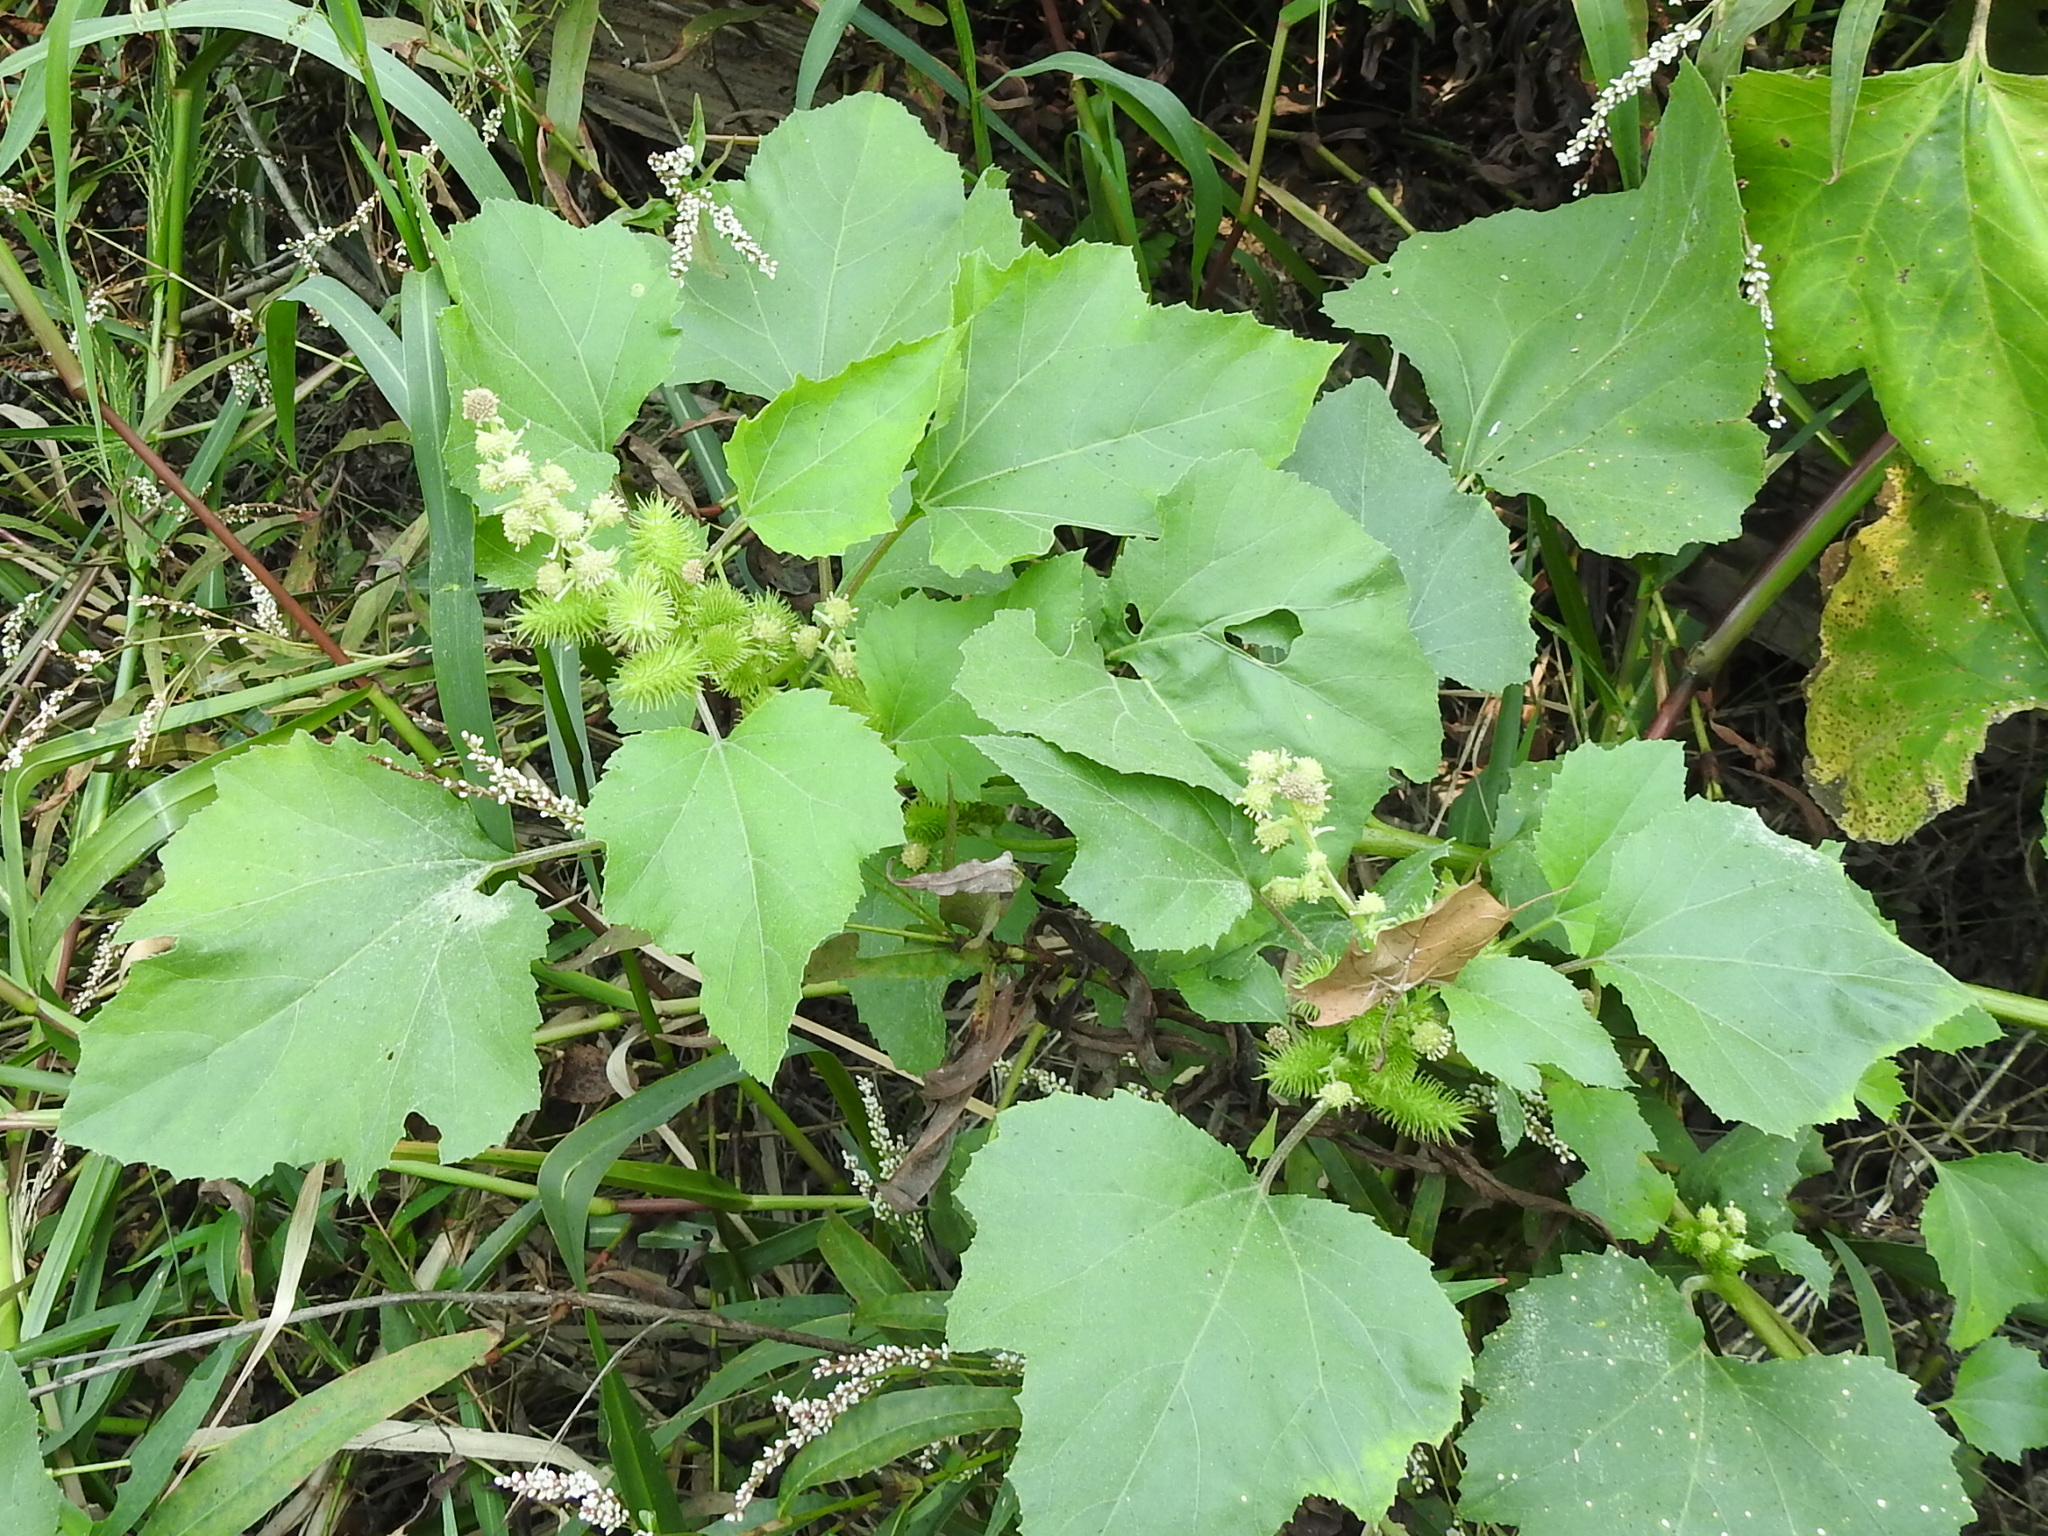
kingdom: Plantae
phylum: Tracheophyta
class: Magnoliopsida
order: Asterales
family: Asteraceae
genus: Xanthium
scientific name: Xanthium strumarium
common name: Rough cocklebur
